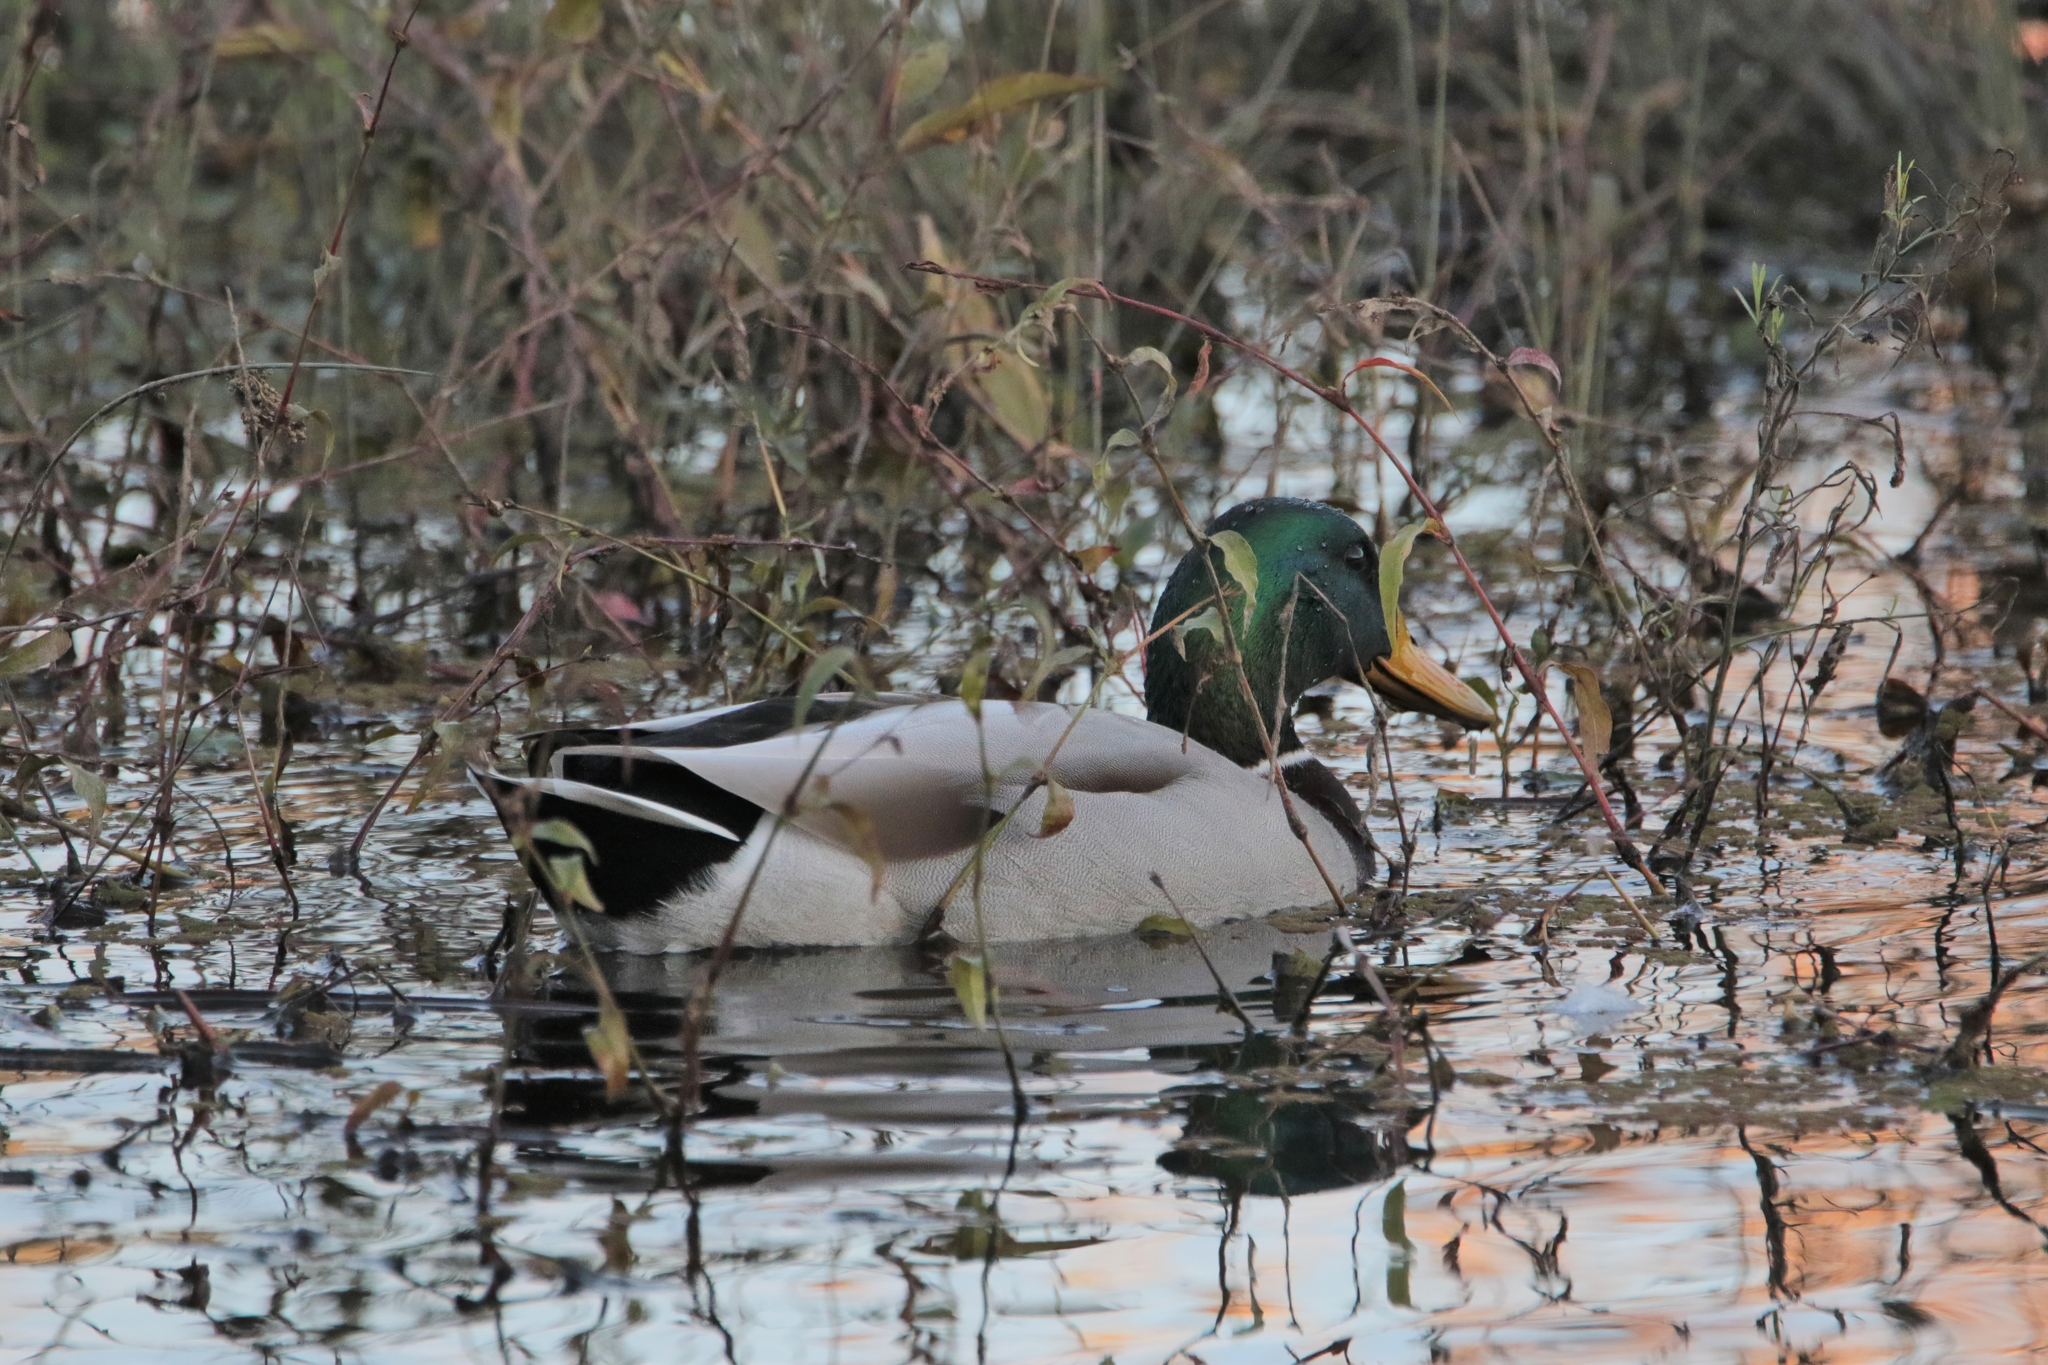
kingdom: Animalia
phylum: Chordata
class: Aves
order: Anseriformes
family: Anatidae
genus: Anas
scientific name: Anas platyrhynchos
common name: Mallard
